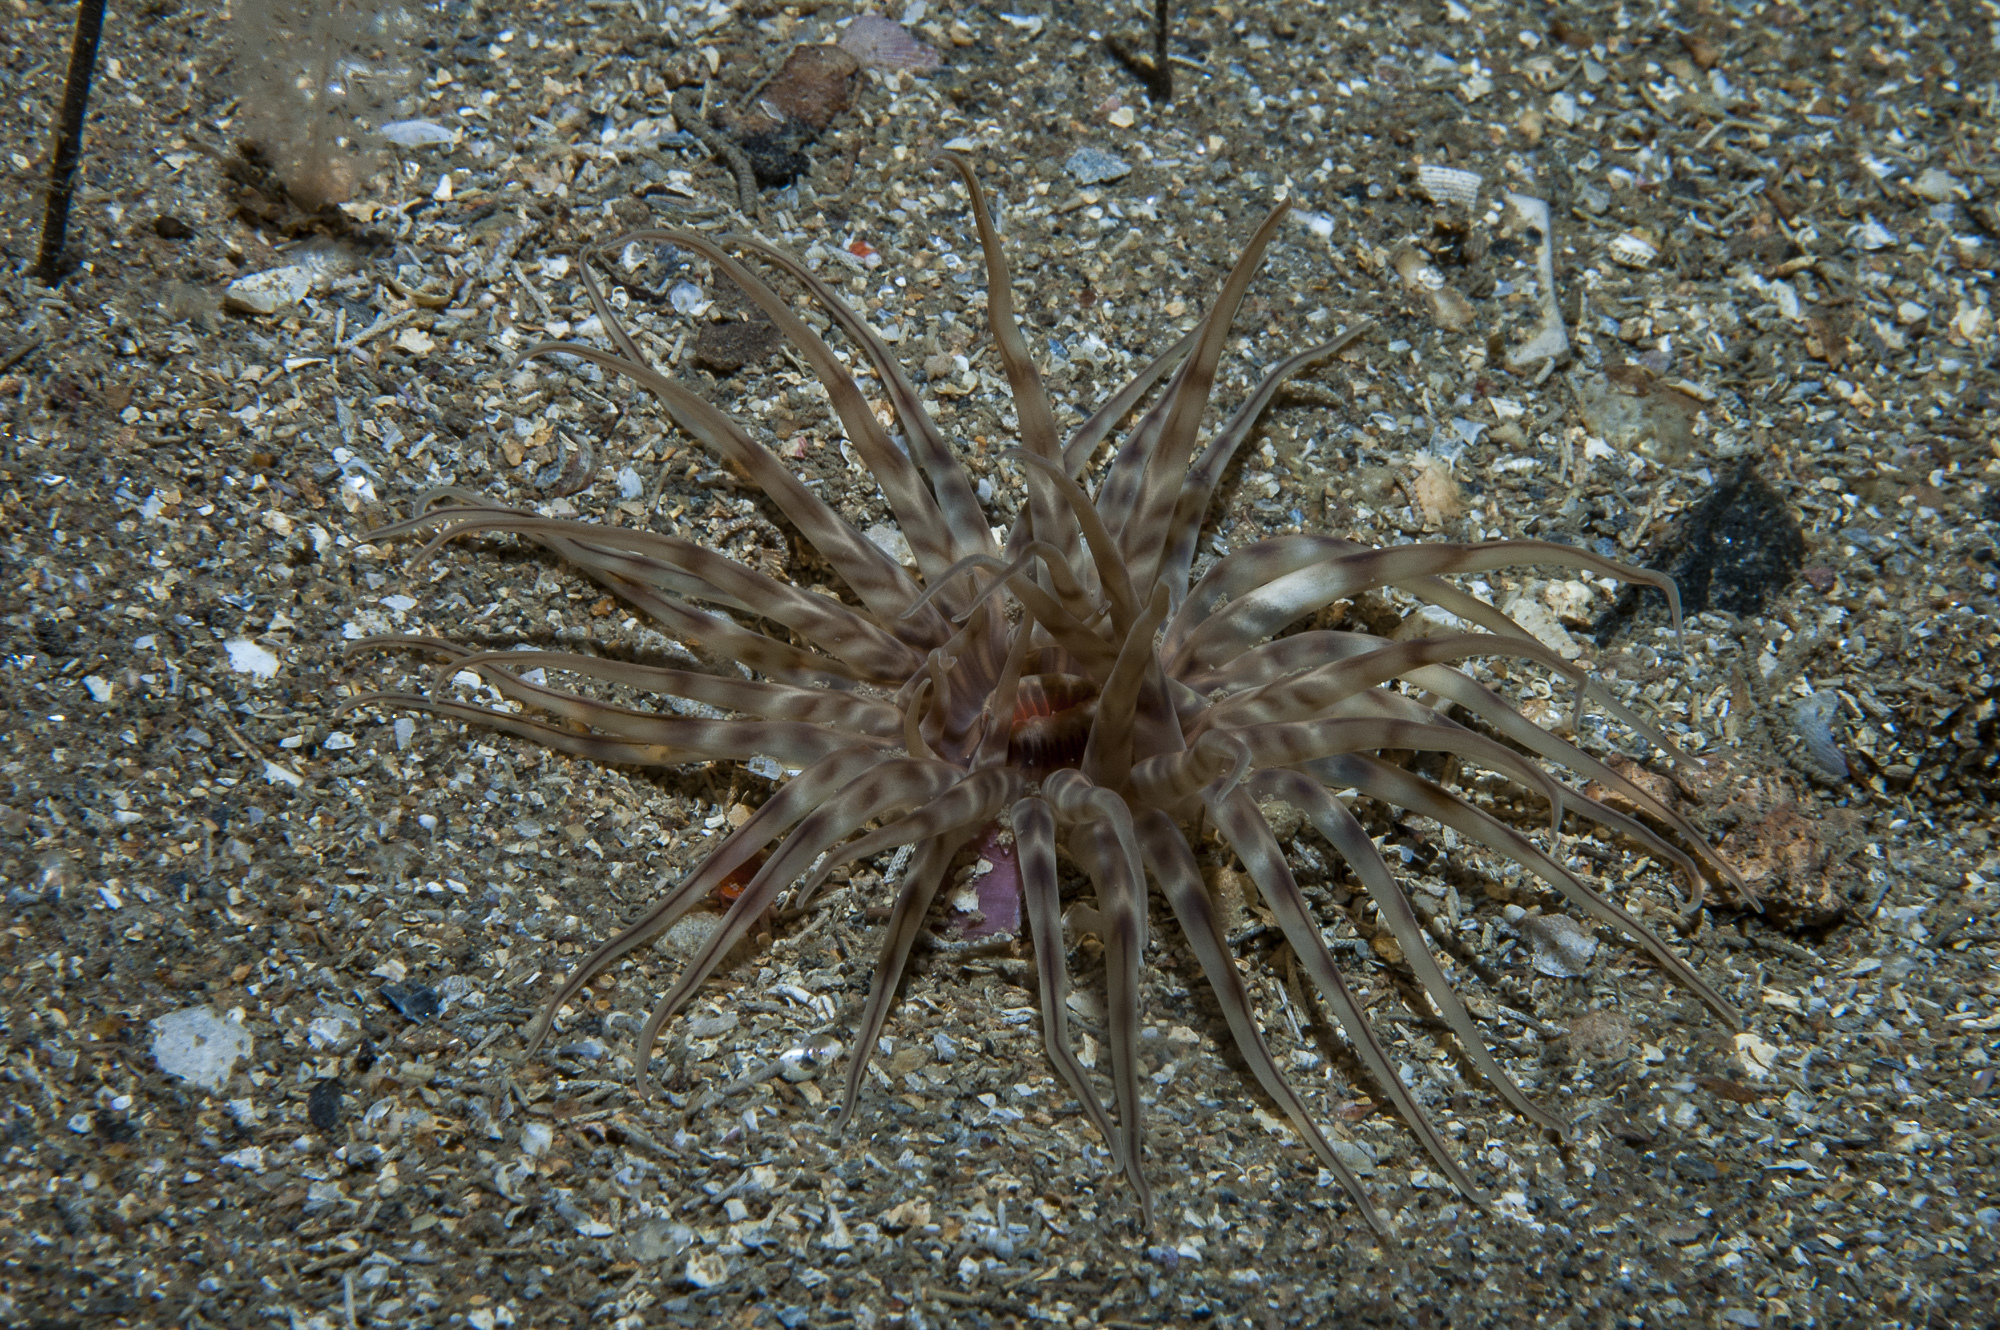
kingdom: Animalia
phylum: Cnidaria
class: Anthozoa
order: Actiniaria
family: Haloclavidae
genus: Mesacmaea
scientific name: Mesacmaea mitchellii
